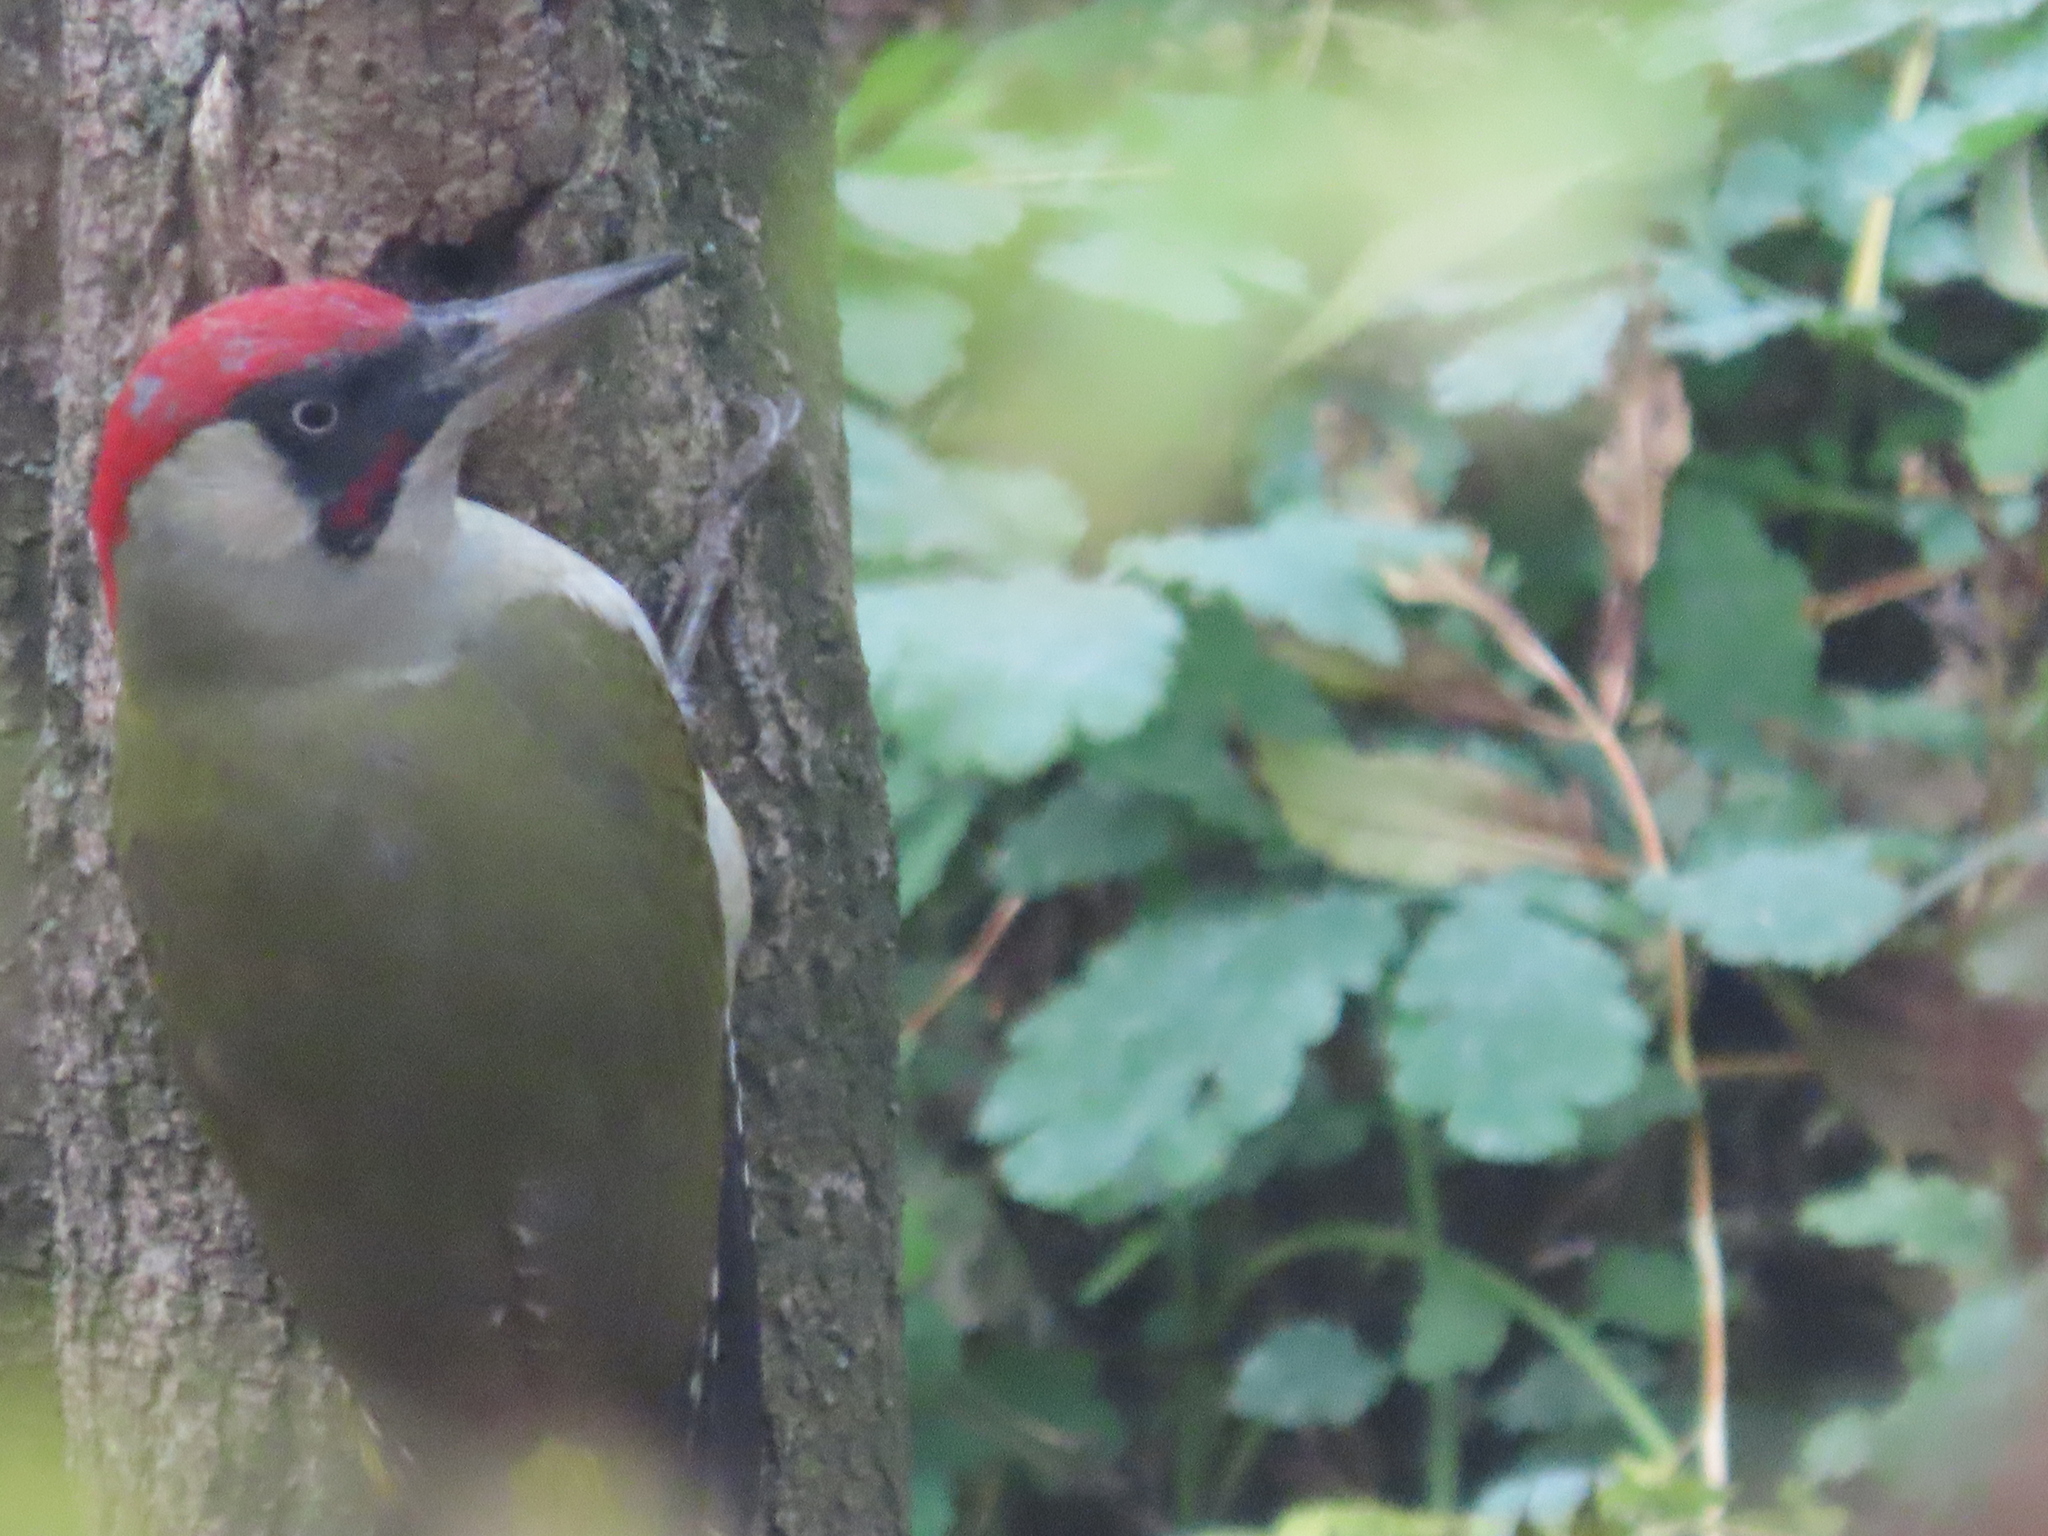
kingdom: Animalia
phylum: Chordata
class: Aves
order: Piciformes
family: Picidae
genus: Picus
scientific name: Picus viridis
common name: European green woodpecker
